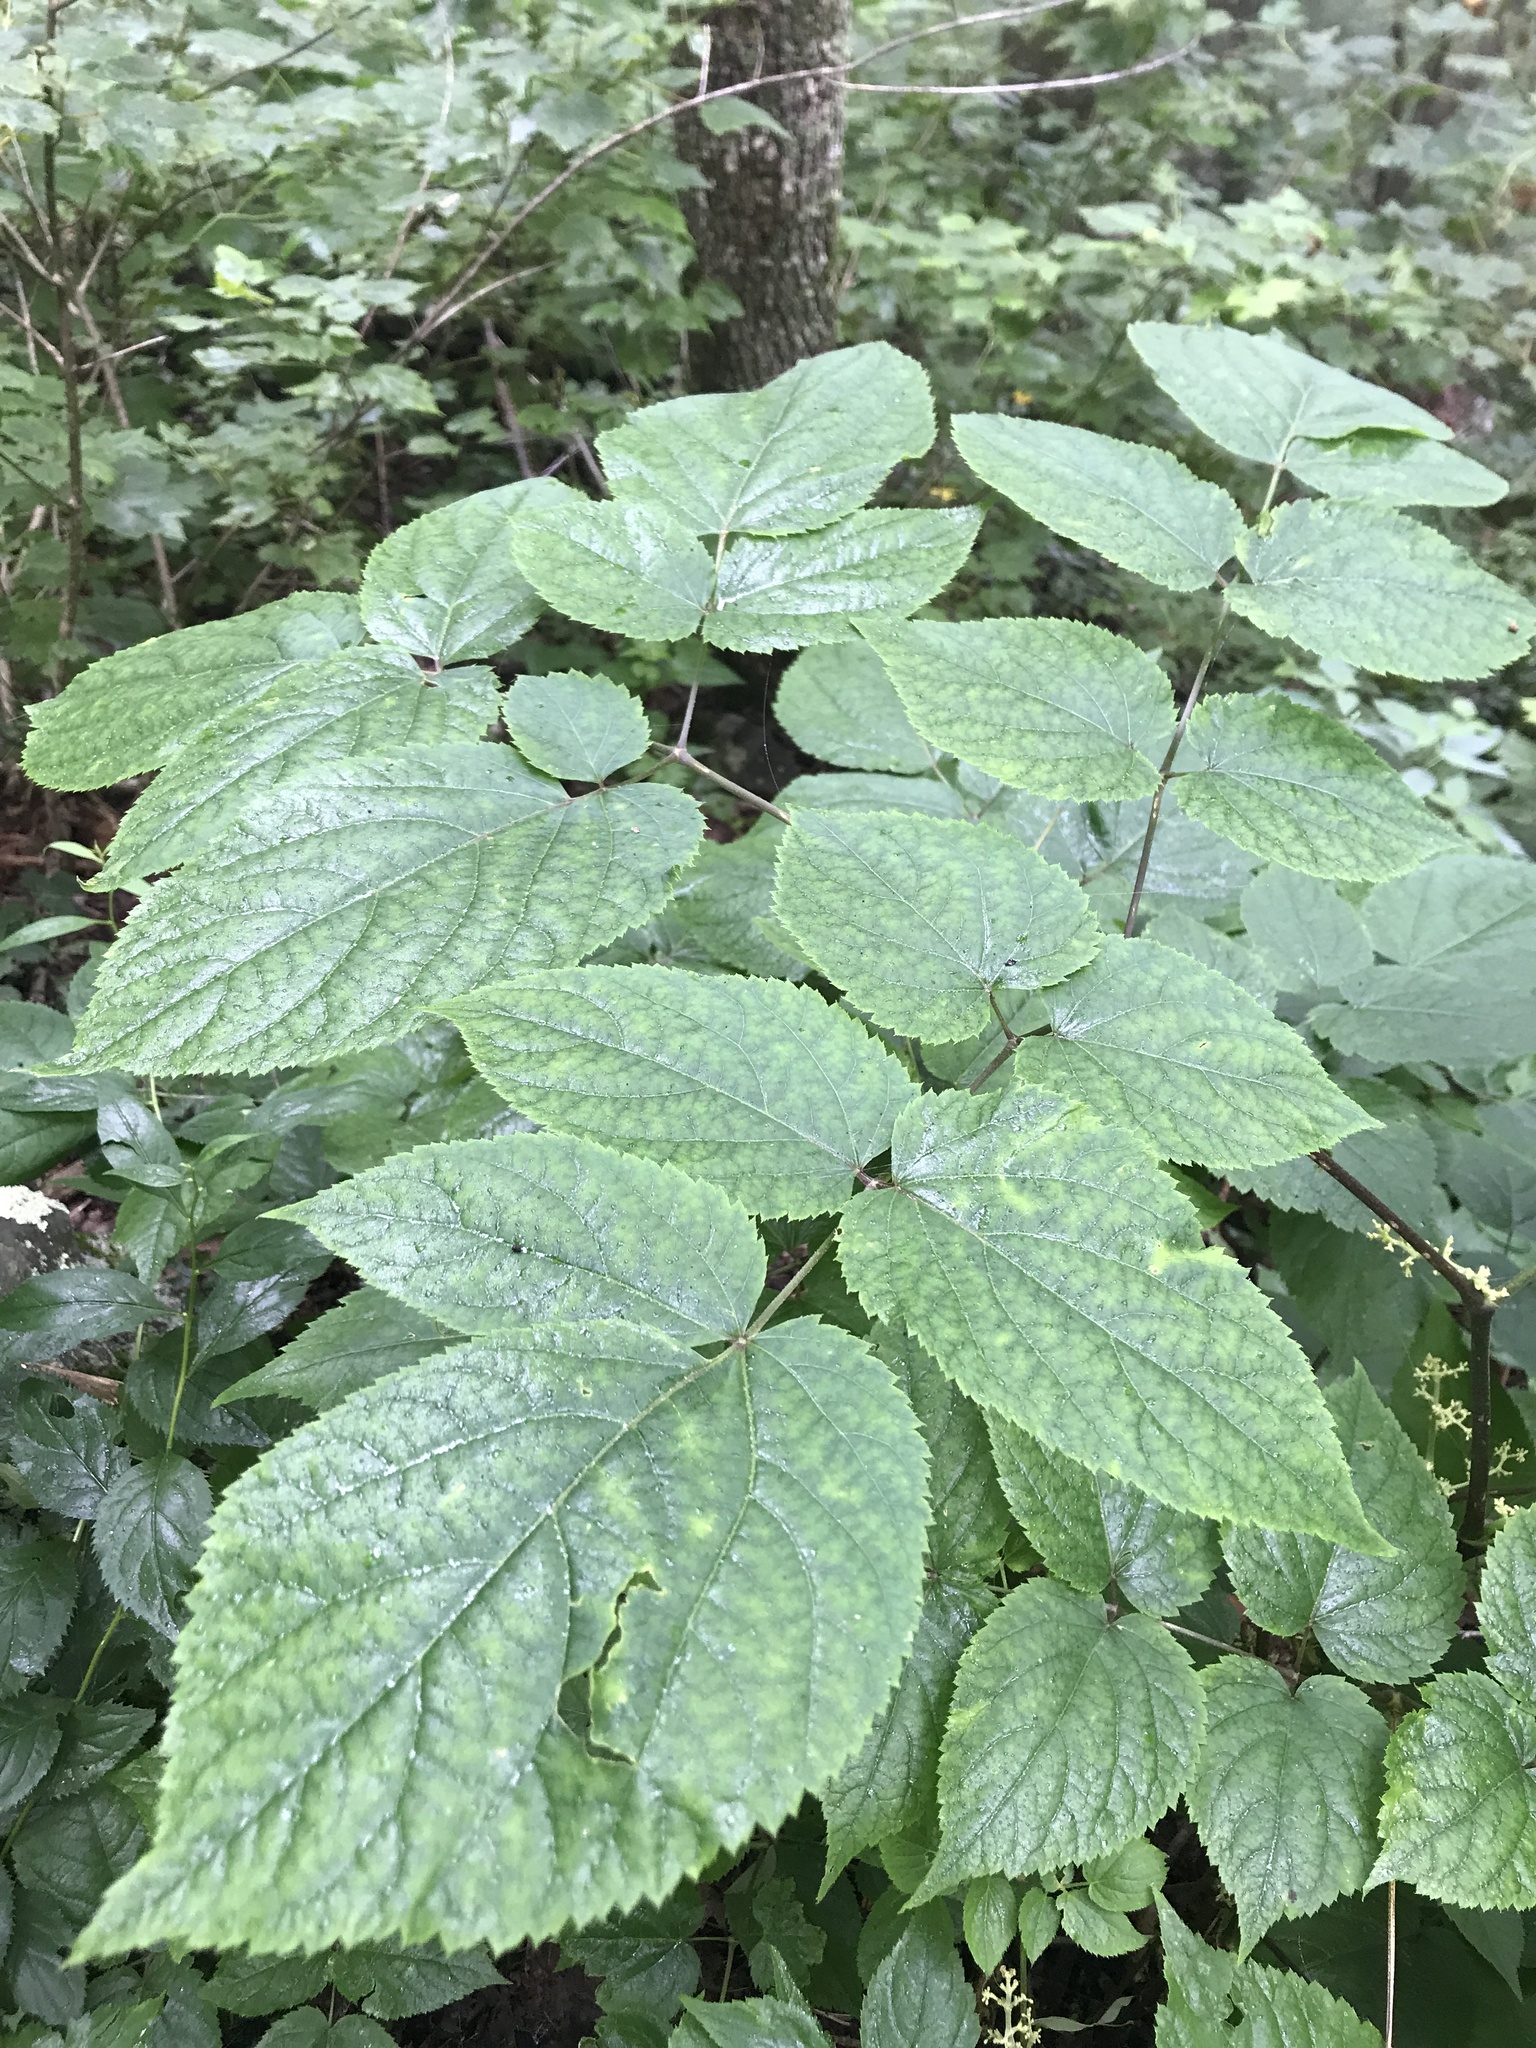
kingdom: Plantae
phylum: Tracheophyta
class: Magnoliopsida
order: Apiales
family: Araliaceae
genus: Aralia
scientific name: Aralia racemosa
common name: American-spikenard
